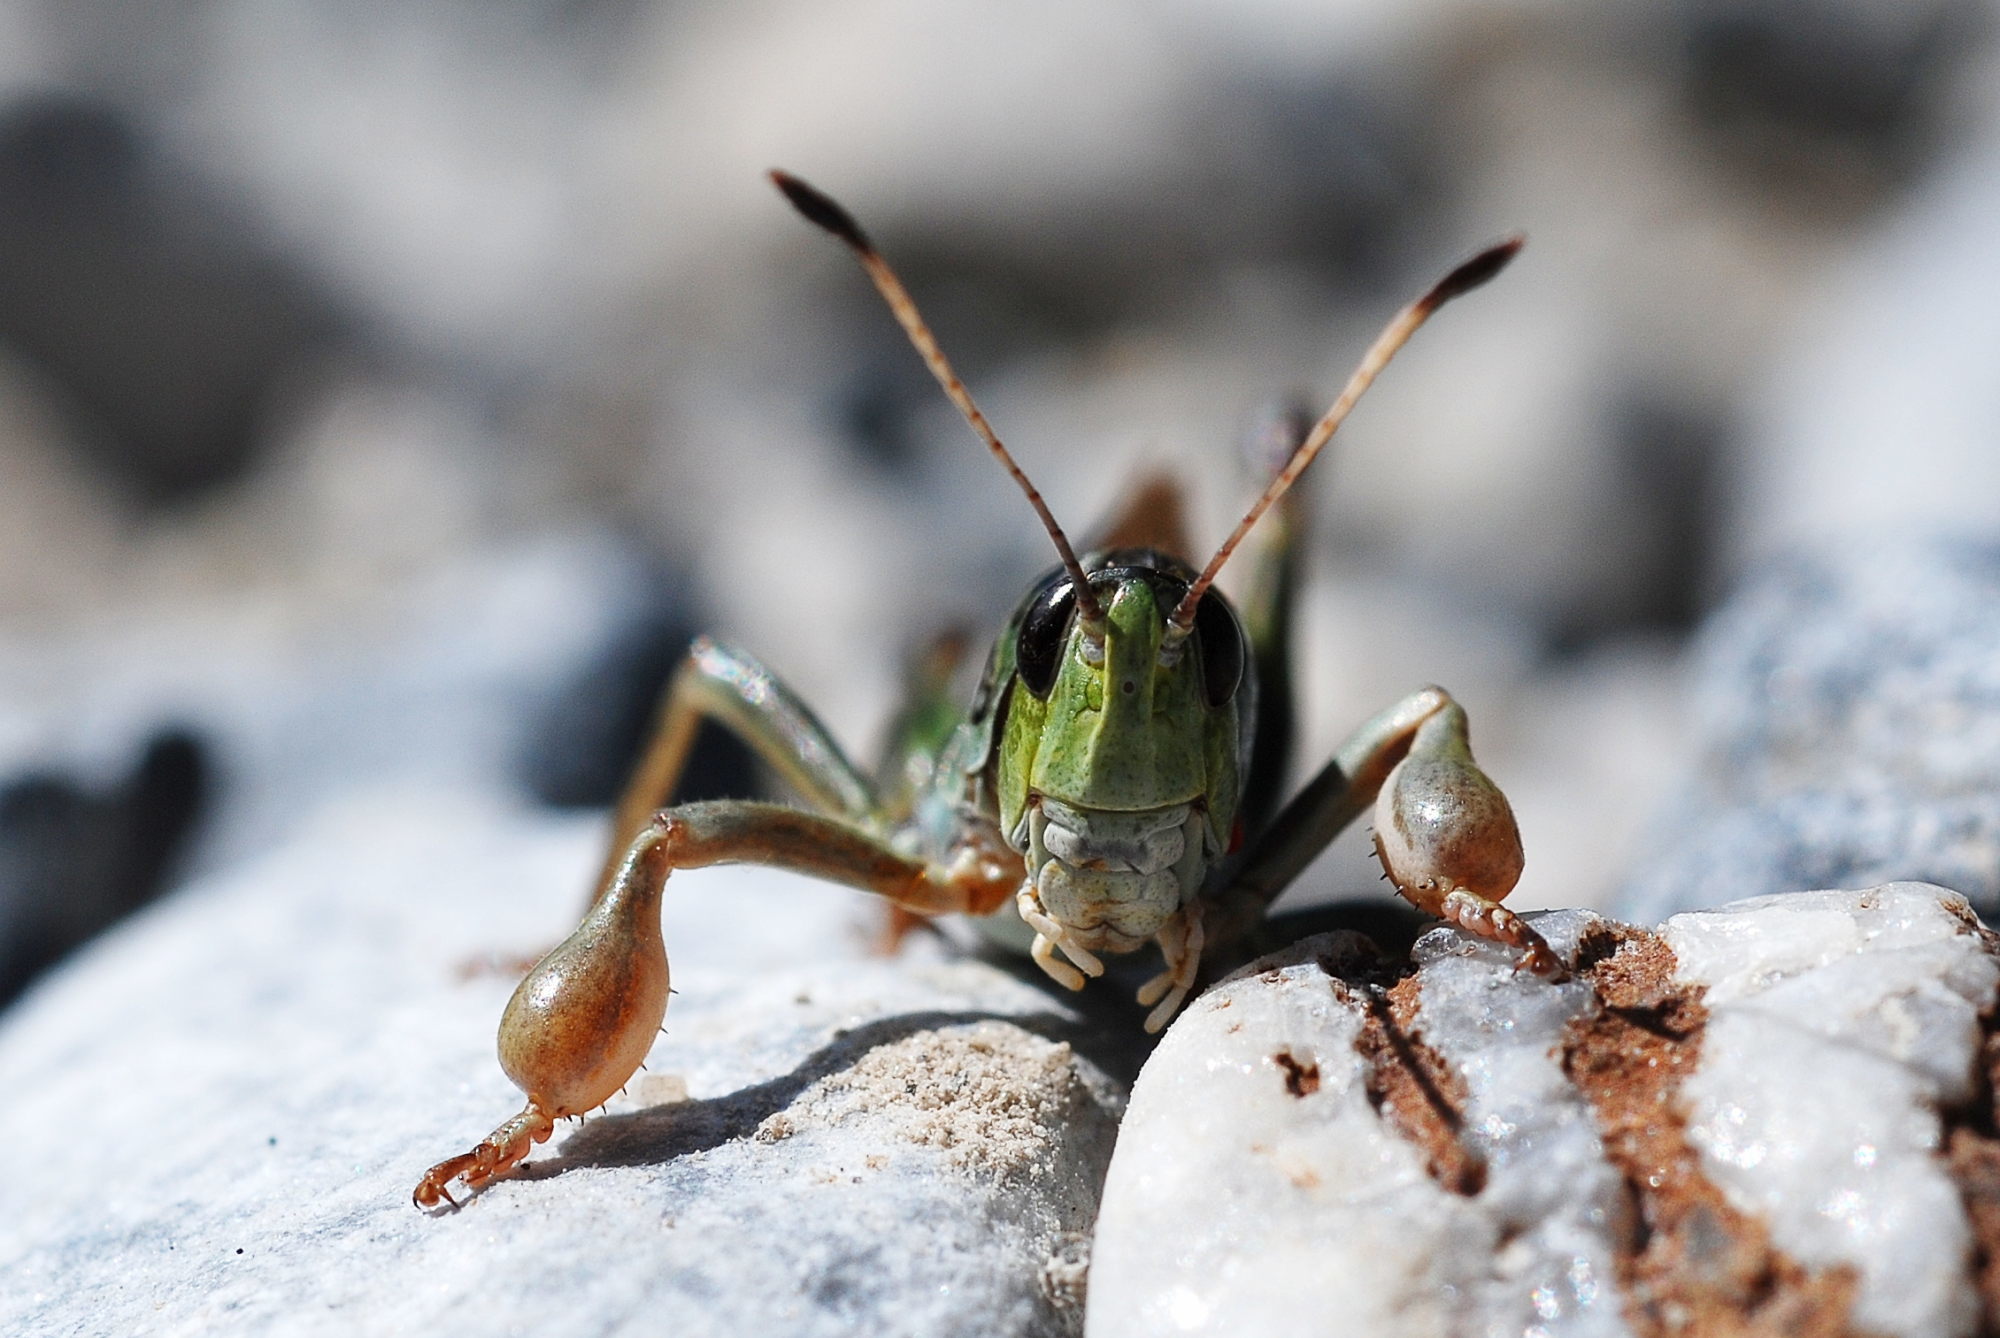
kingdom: Animalia
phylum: Arthropoda
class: Insecta
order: Orthoptera
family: Acrididae
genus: Gomphocerus
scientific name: Gomphocerus sibiricus
